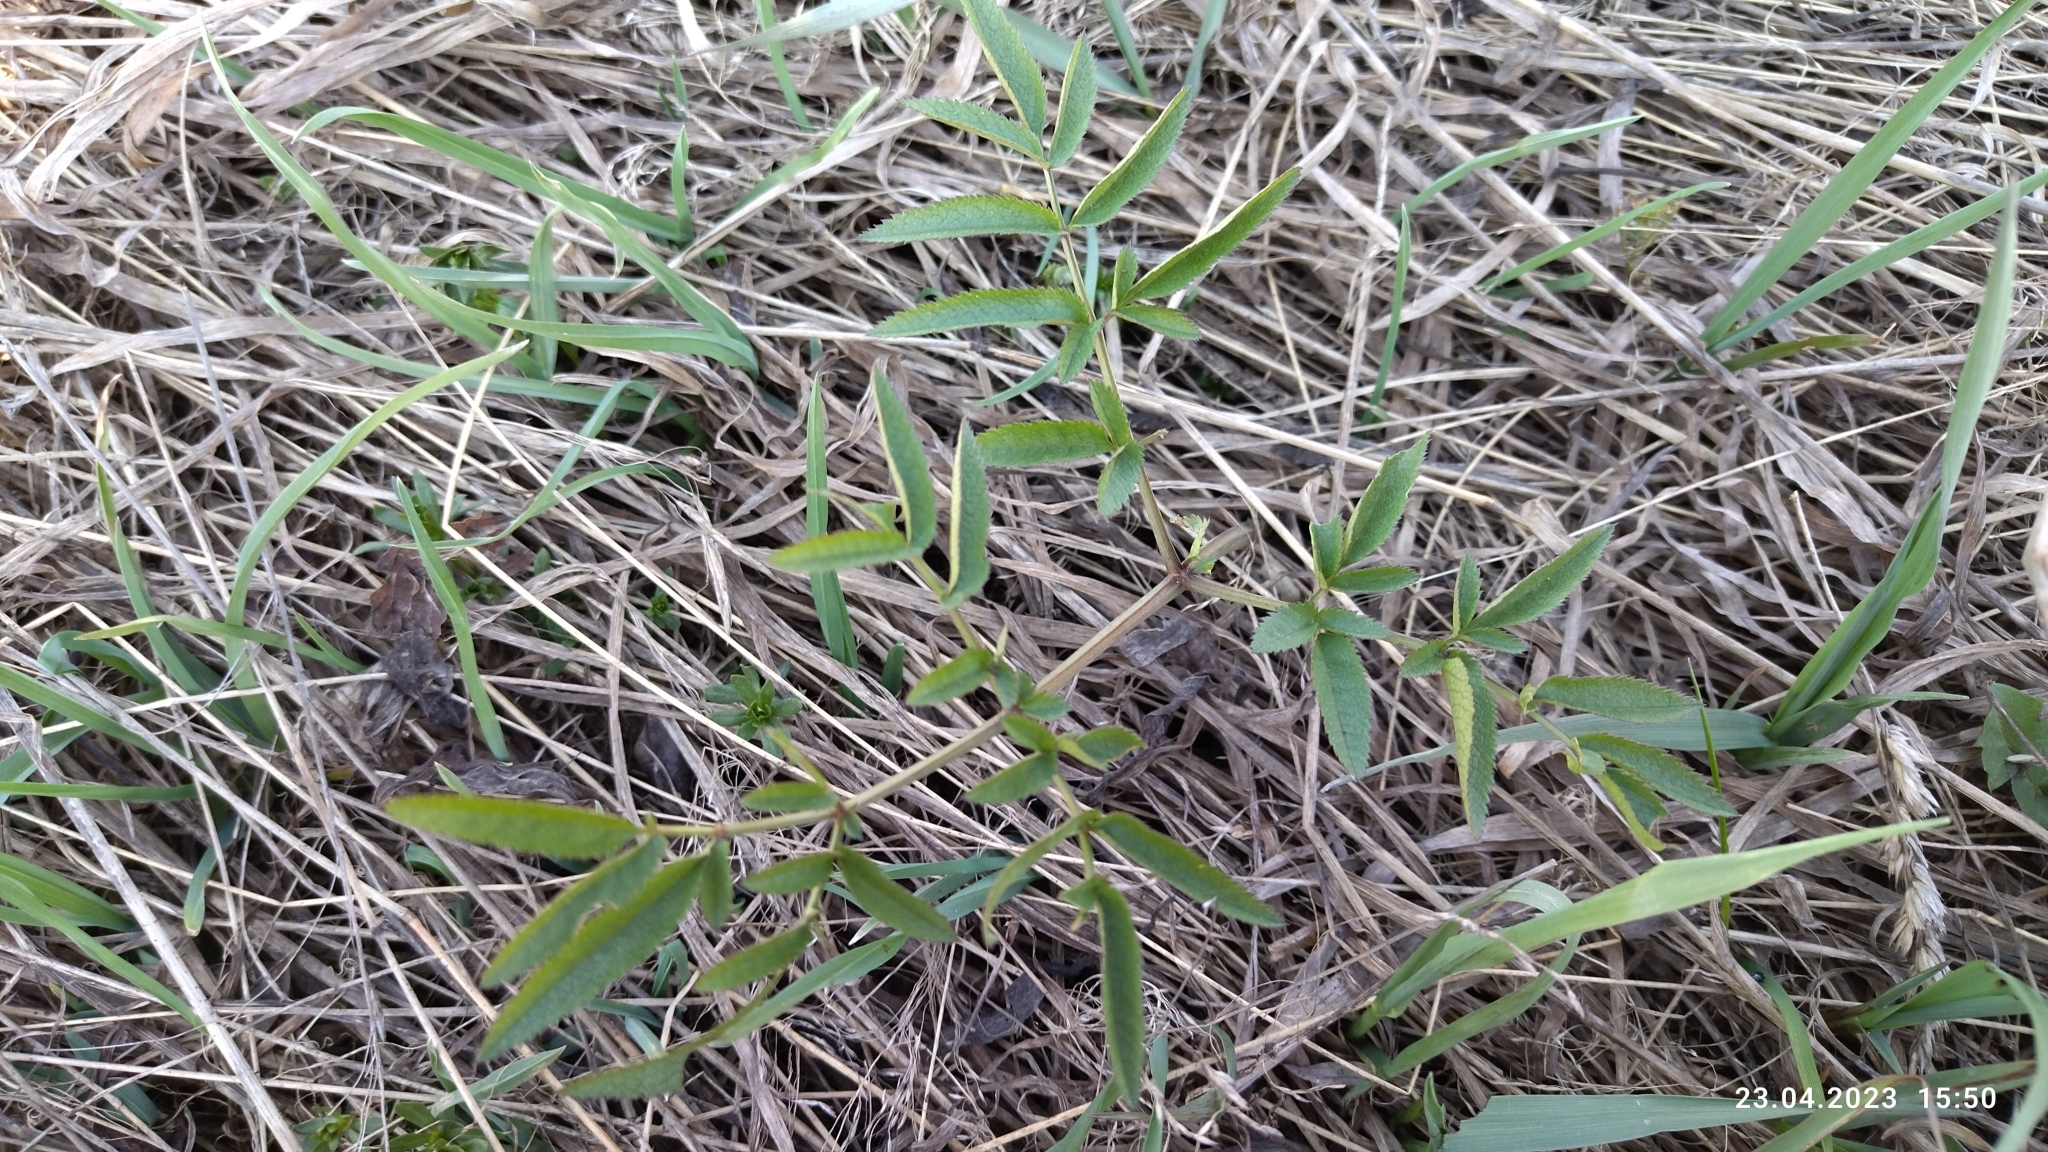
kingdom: Plantae
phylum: Tracheophyta
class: Magnoliopsida
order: Apiales
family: Apiaceae
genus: Angelica
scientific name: Angelica sylvestris
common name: Wild angelica
